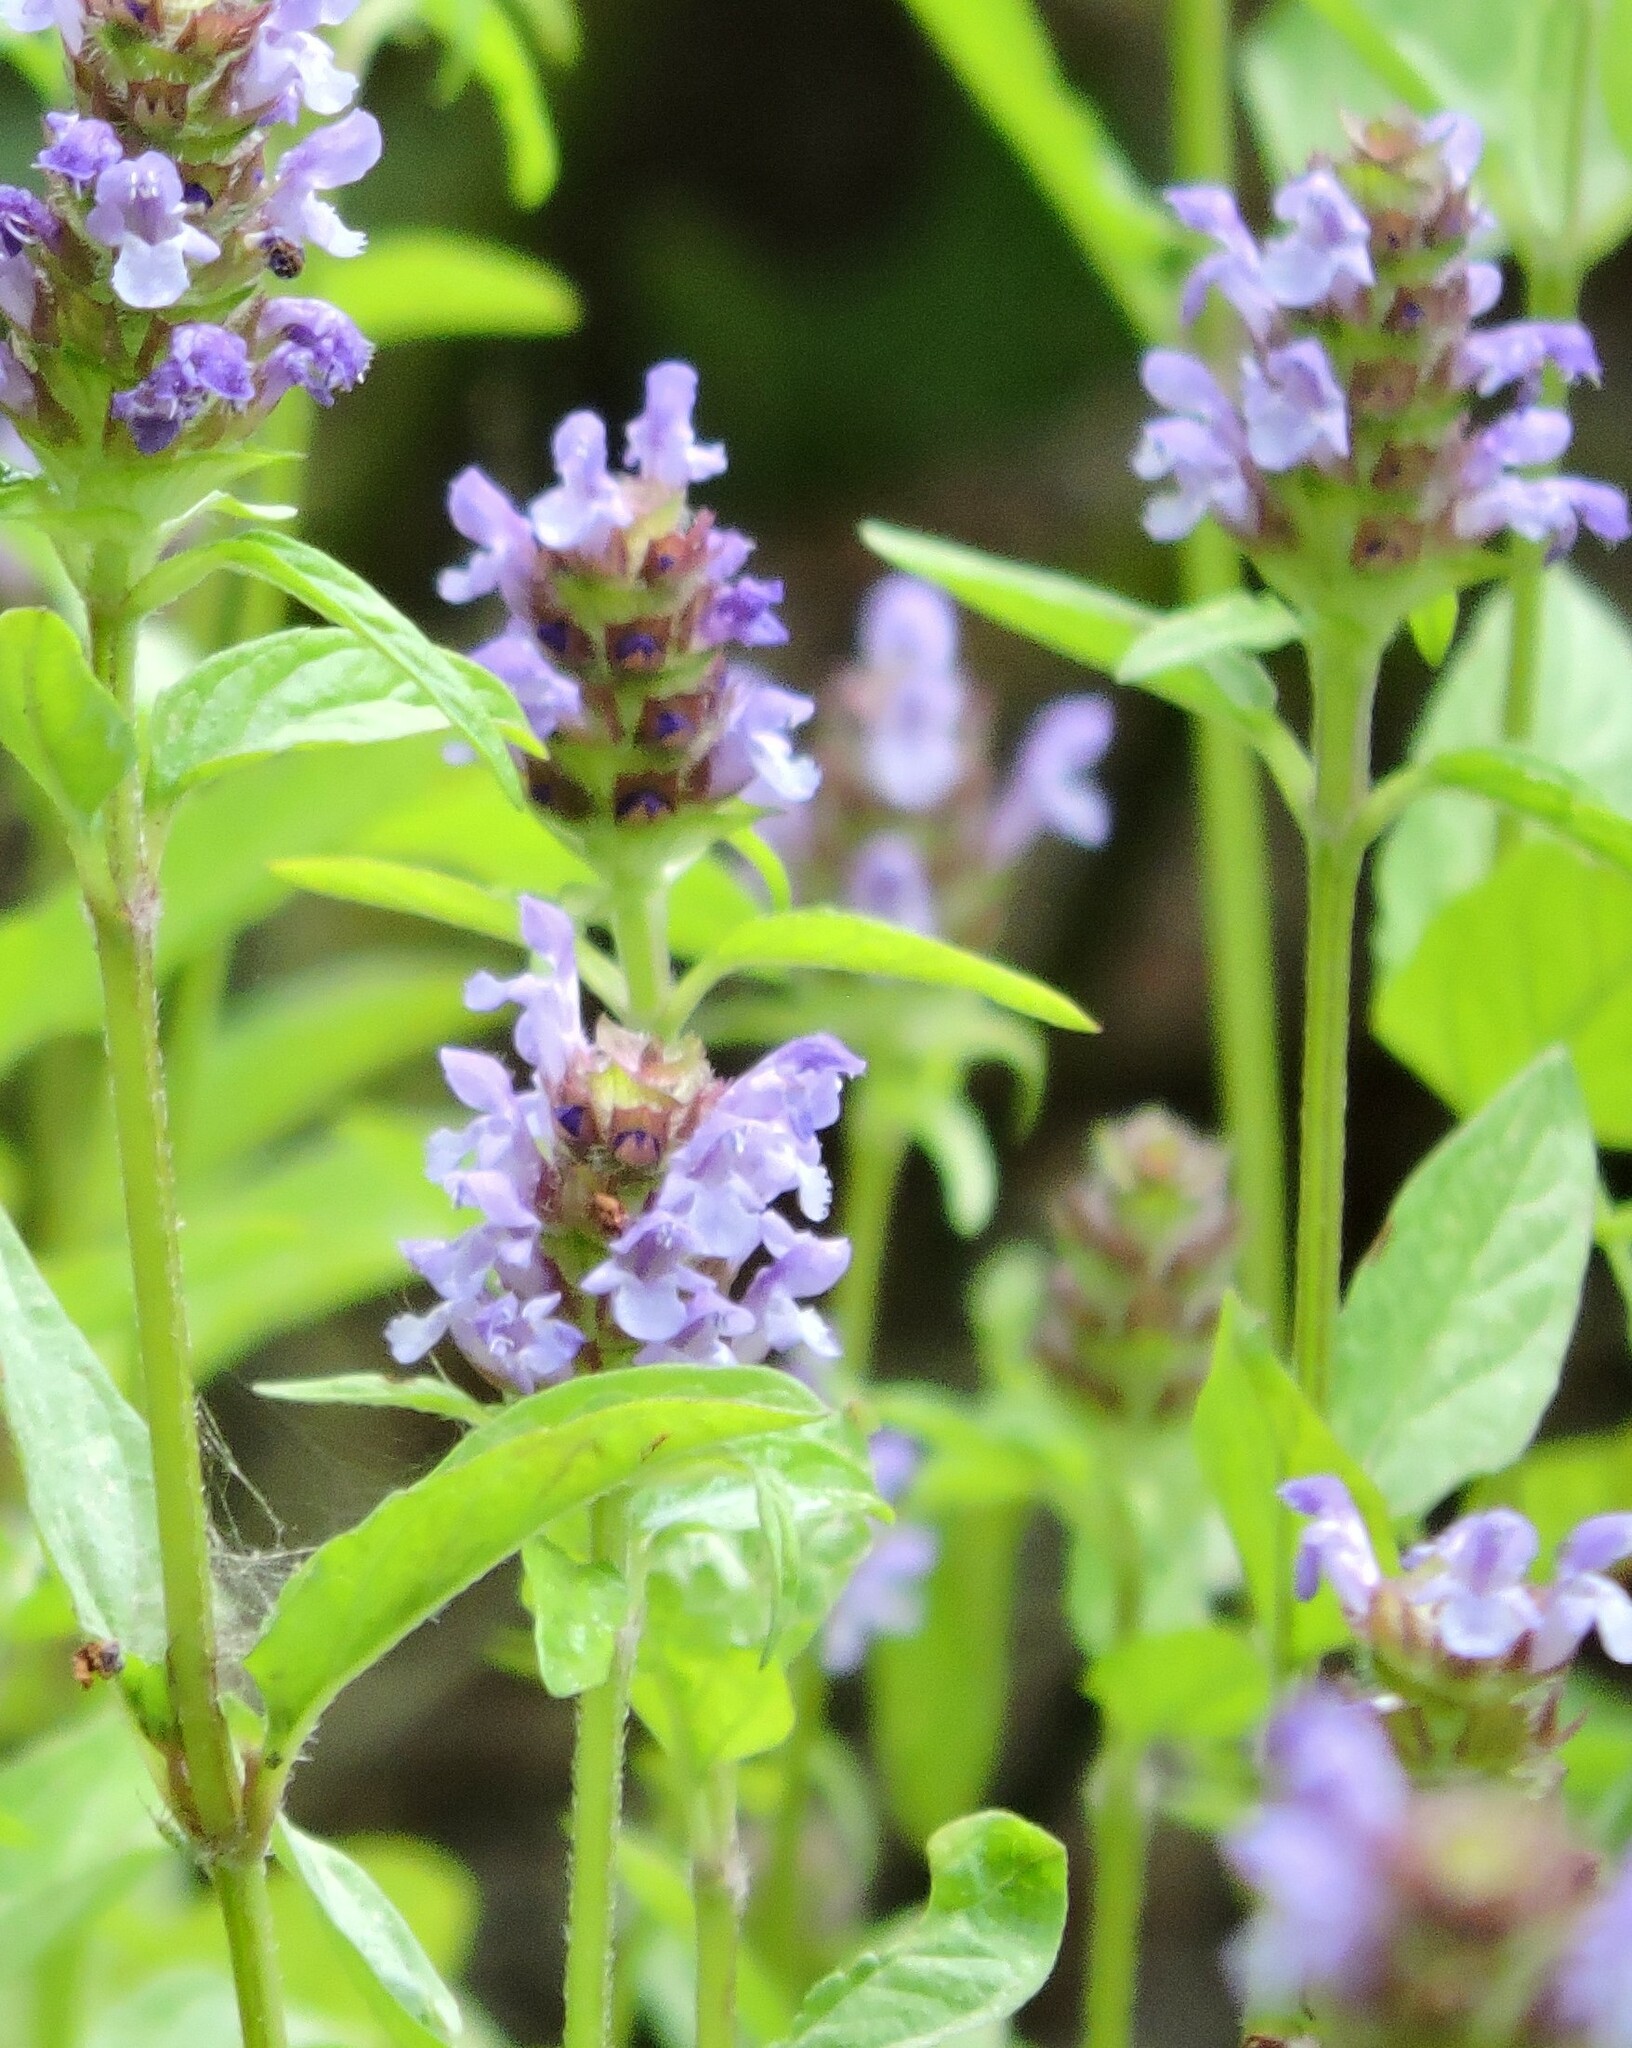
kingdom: Plantae
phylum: Tracheophyta
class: Magnoliopsida
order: Lamiales
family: Lamiaceae
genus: Prunella
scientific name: Prunella vulgaris
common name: Heal-all
